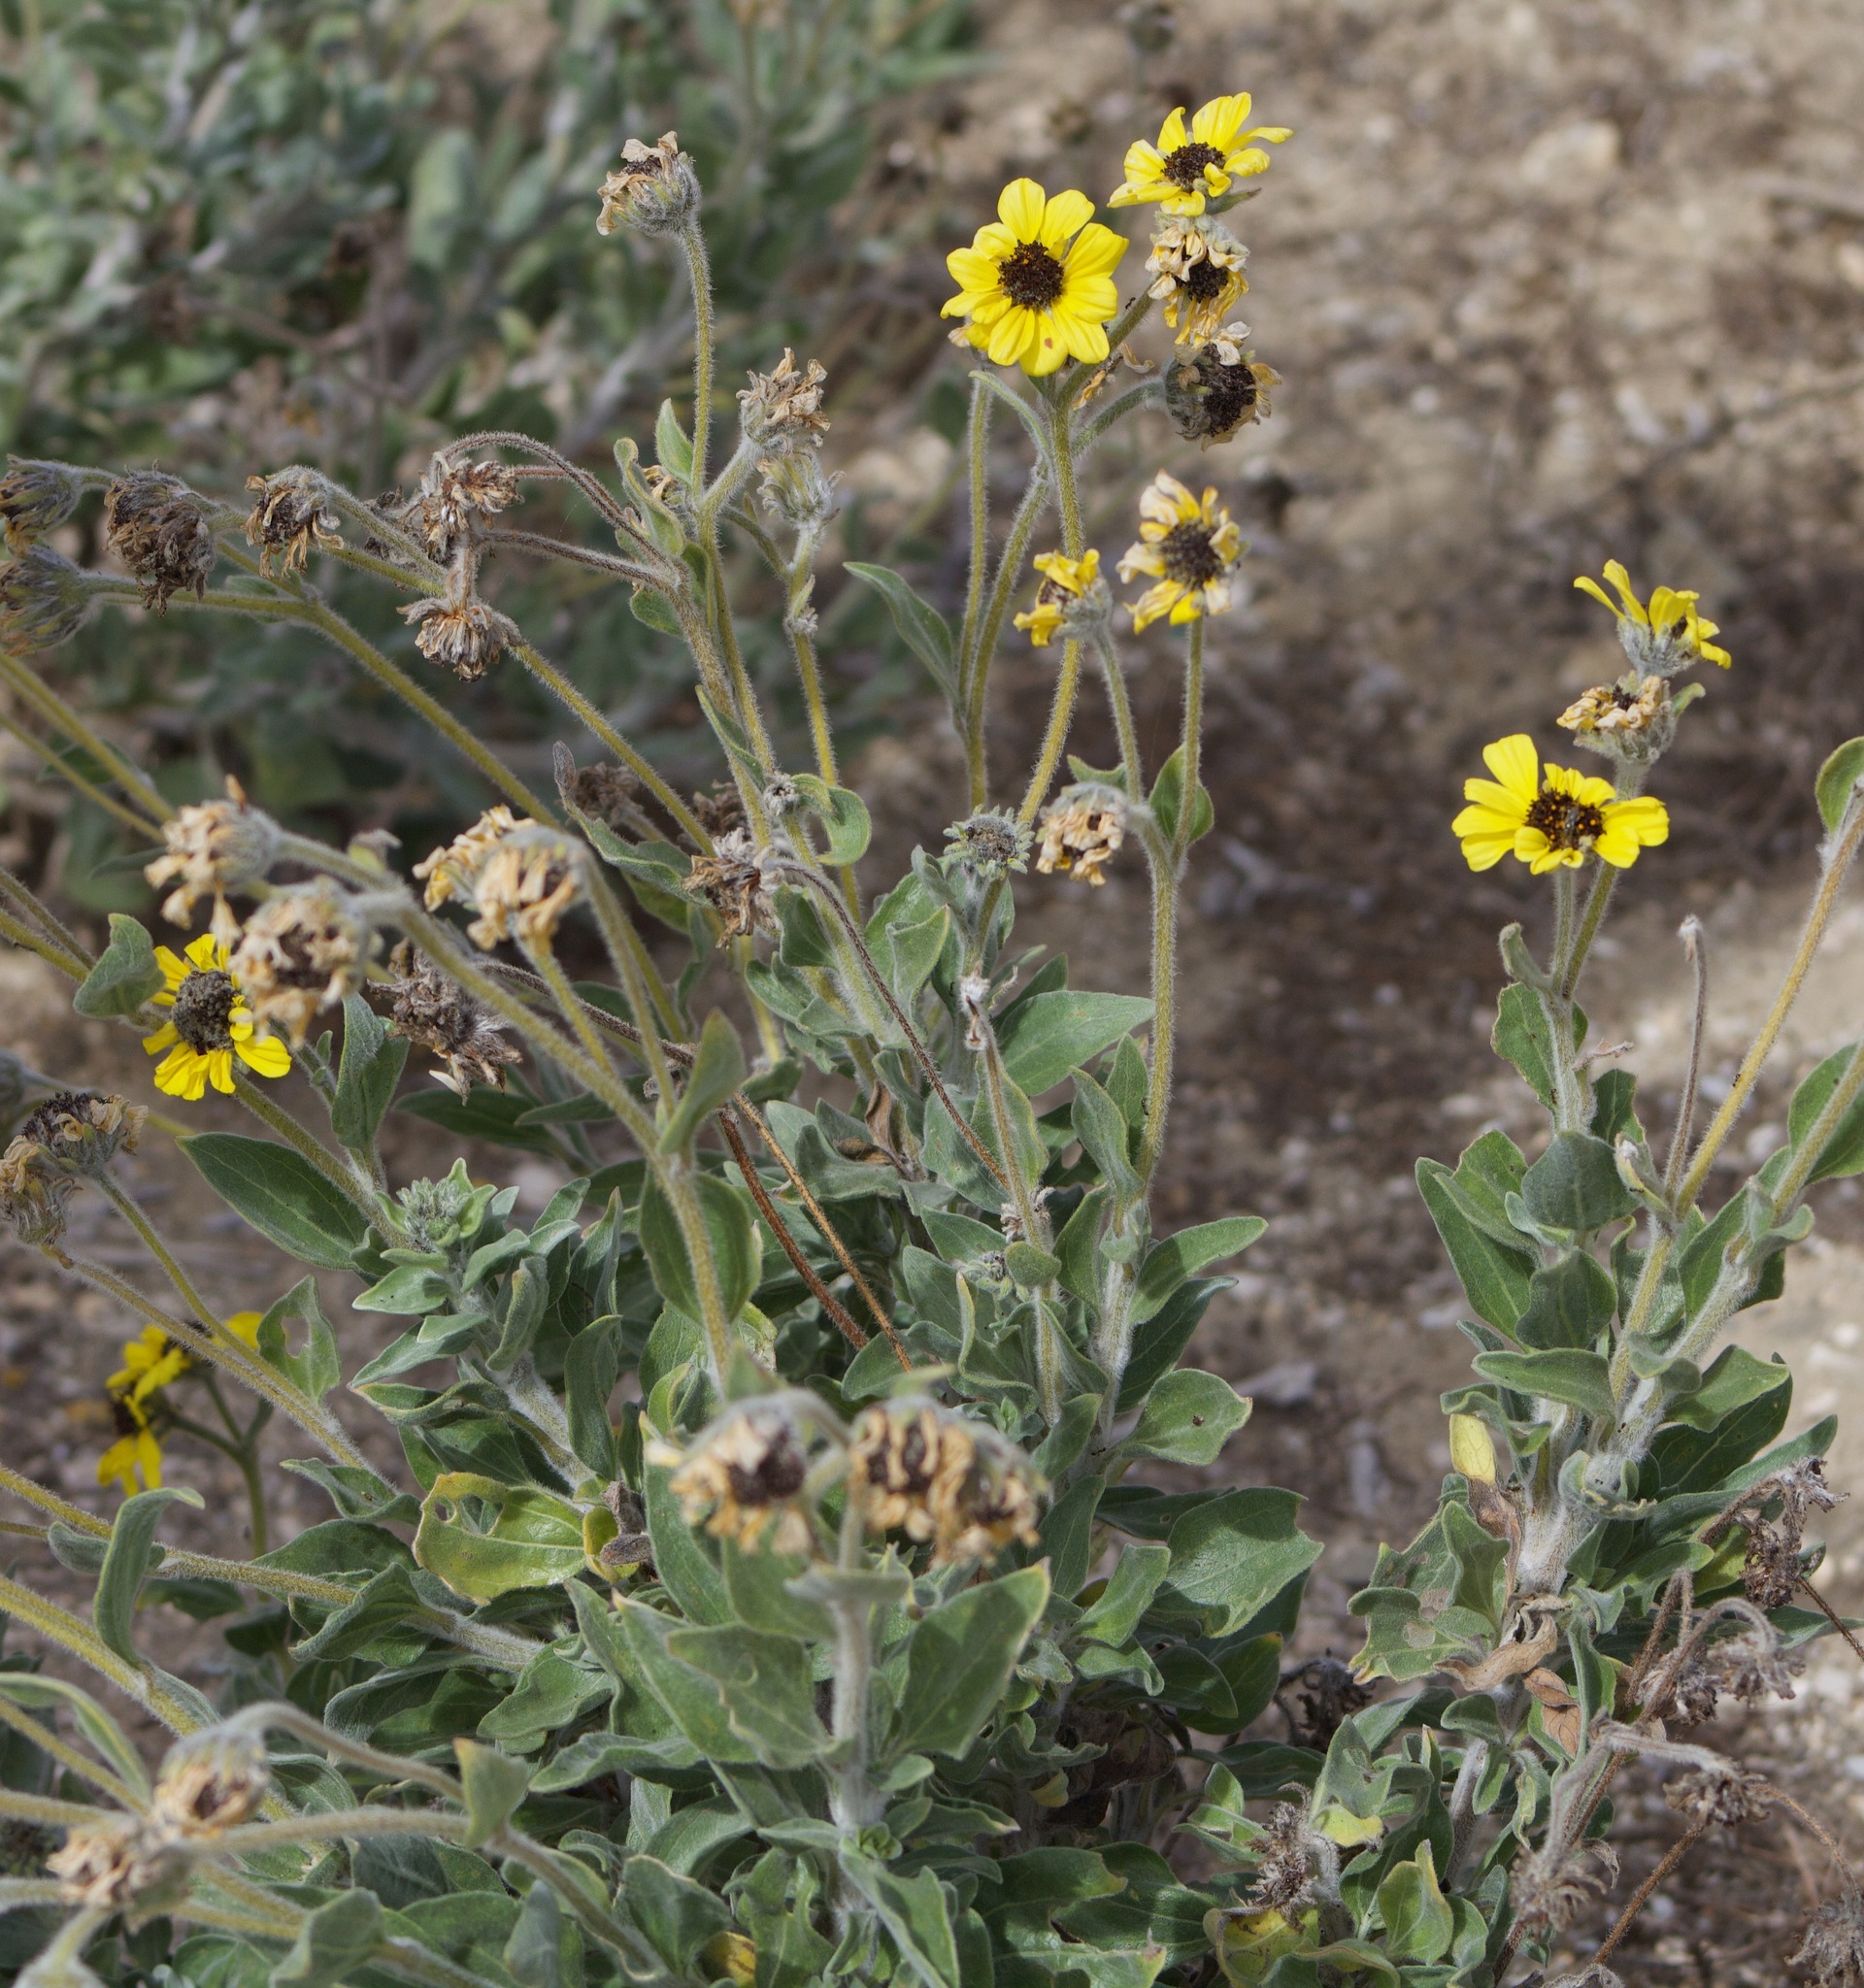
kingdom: Plantae
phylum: Tracheophyta
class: Magnoliopsida
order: Asterales
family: Asteraceae
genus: Encelia
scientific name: Encelia canescens
